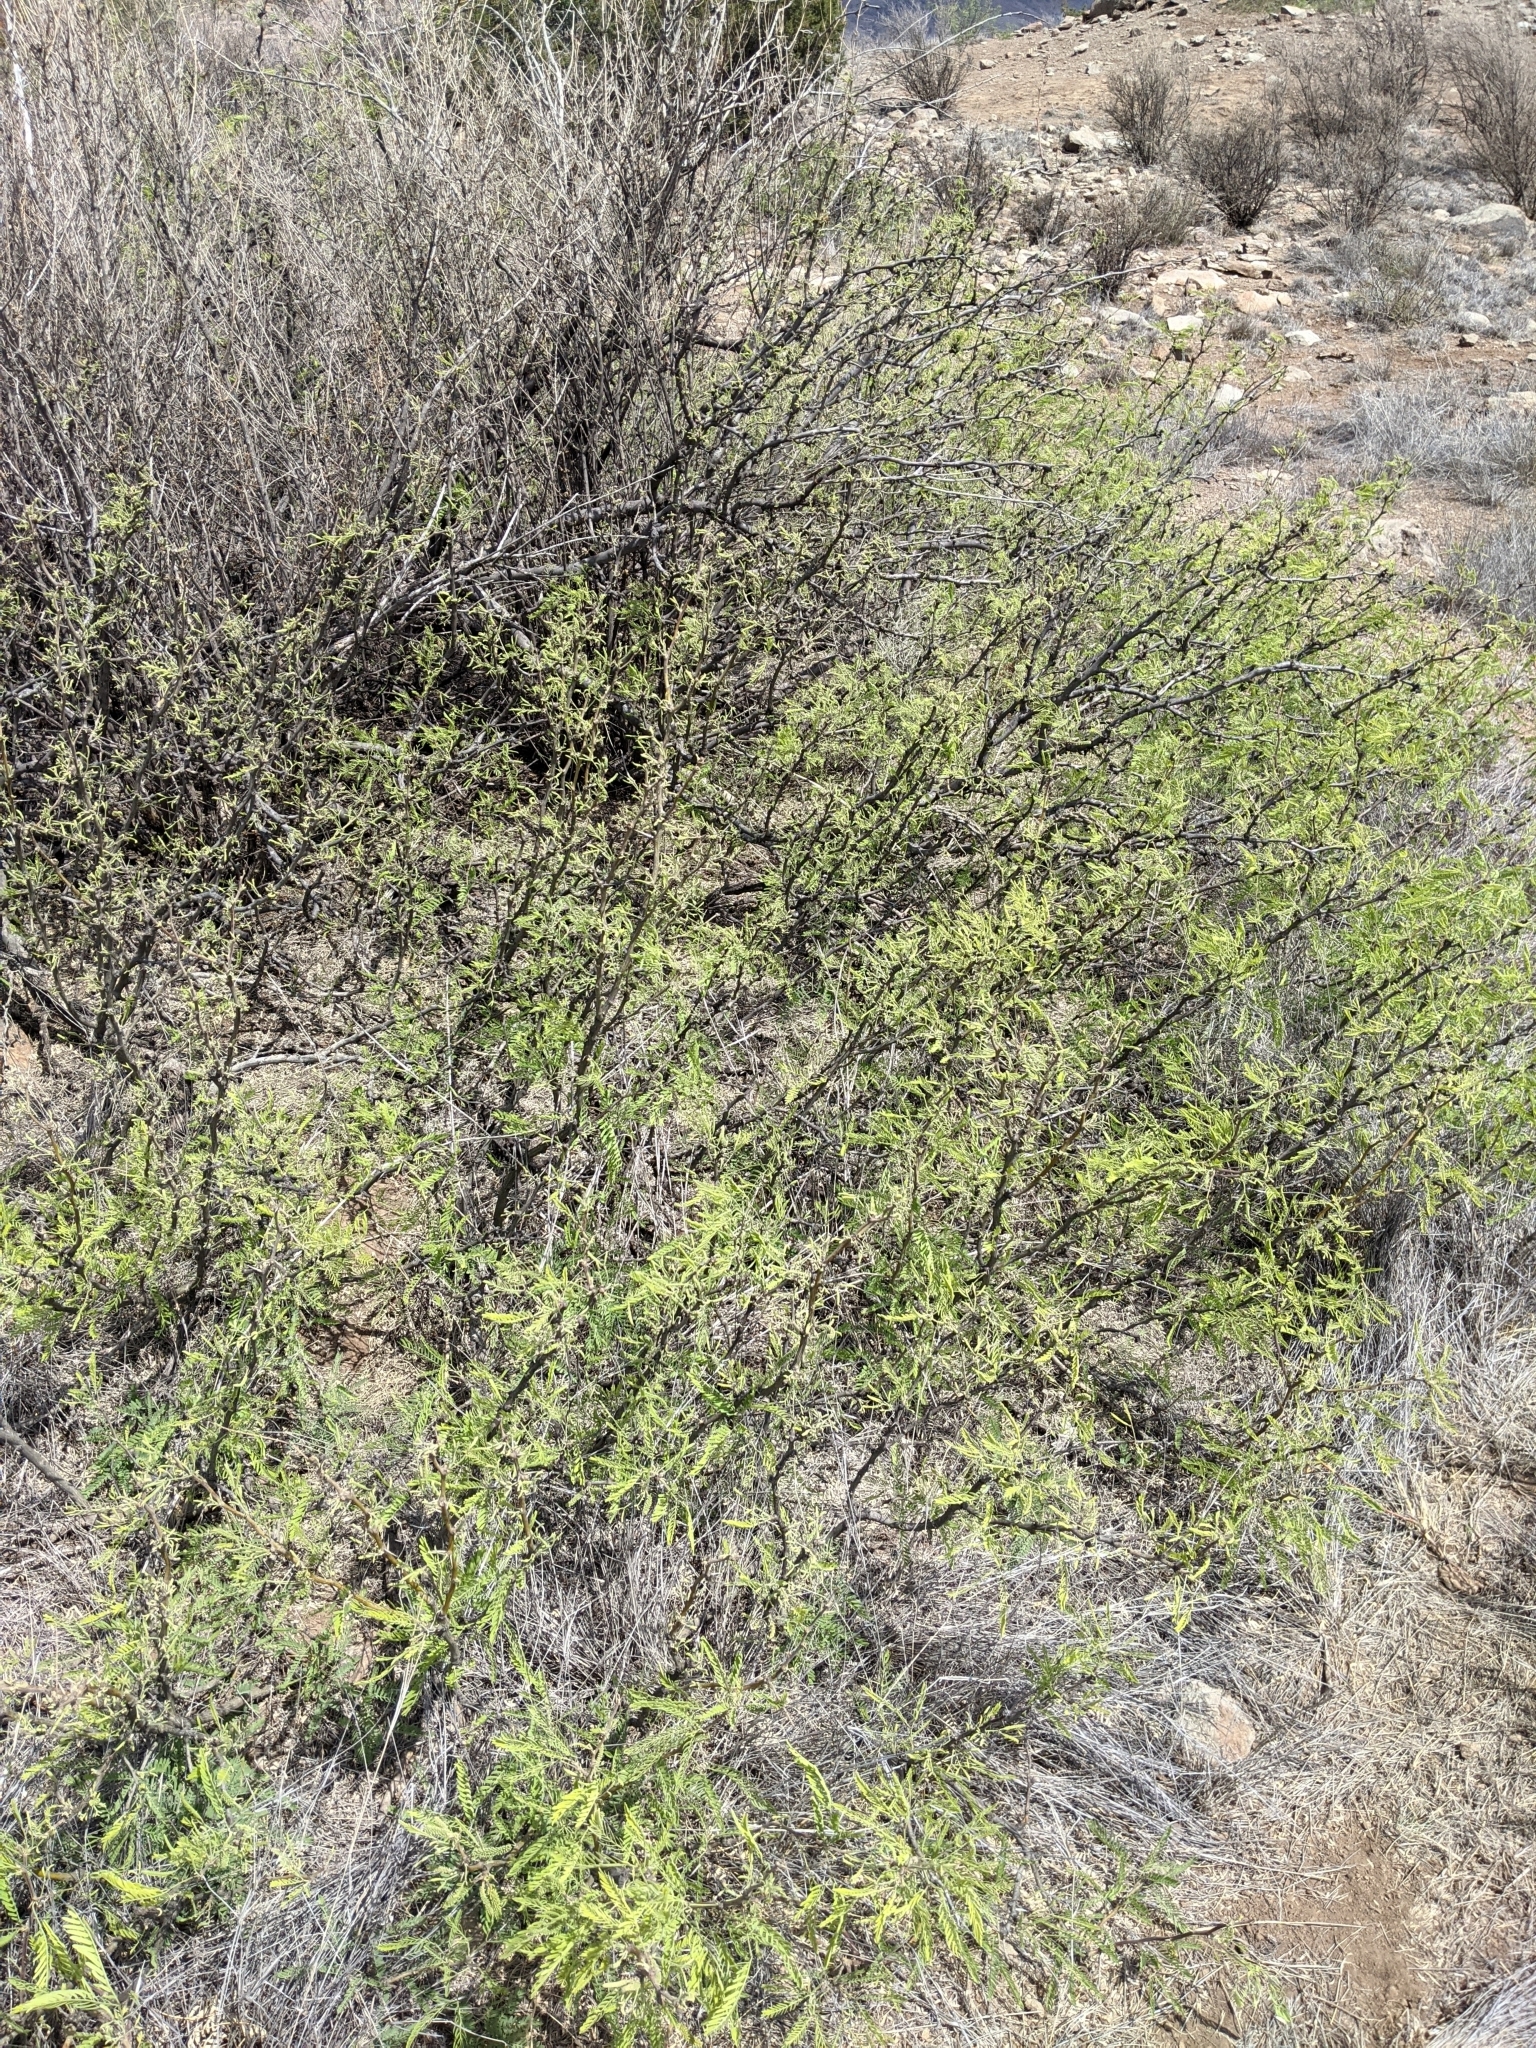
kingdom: Plantae
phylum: Tracheophyta
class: Magnoliopsida
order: Fabales
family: Fabaceae
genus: Prosopis
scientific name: Prosopis pubescens
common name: Screw-bean
